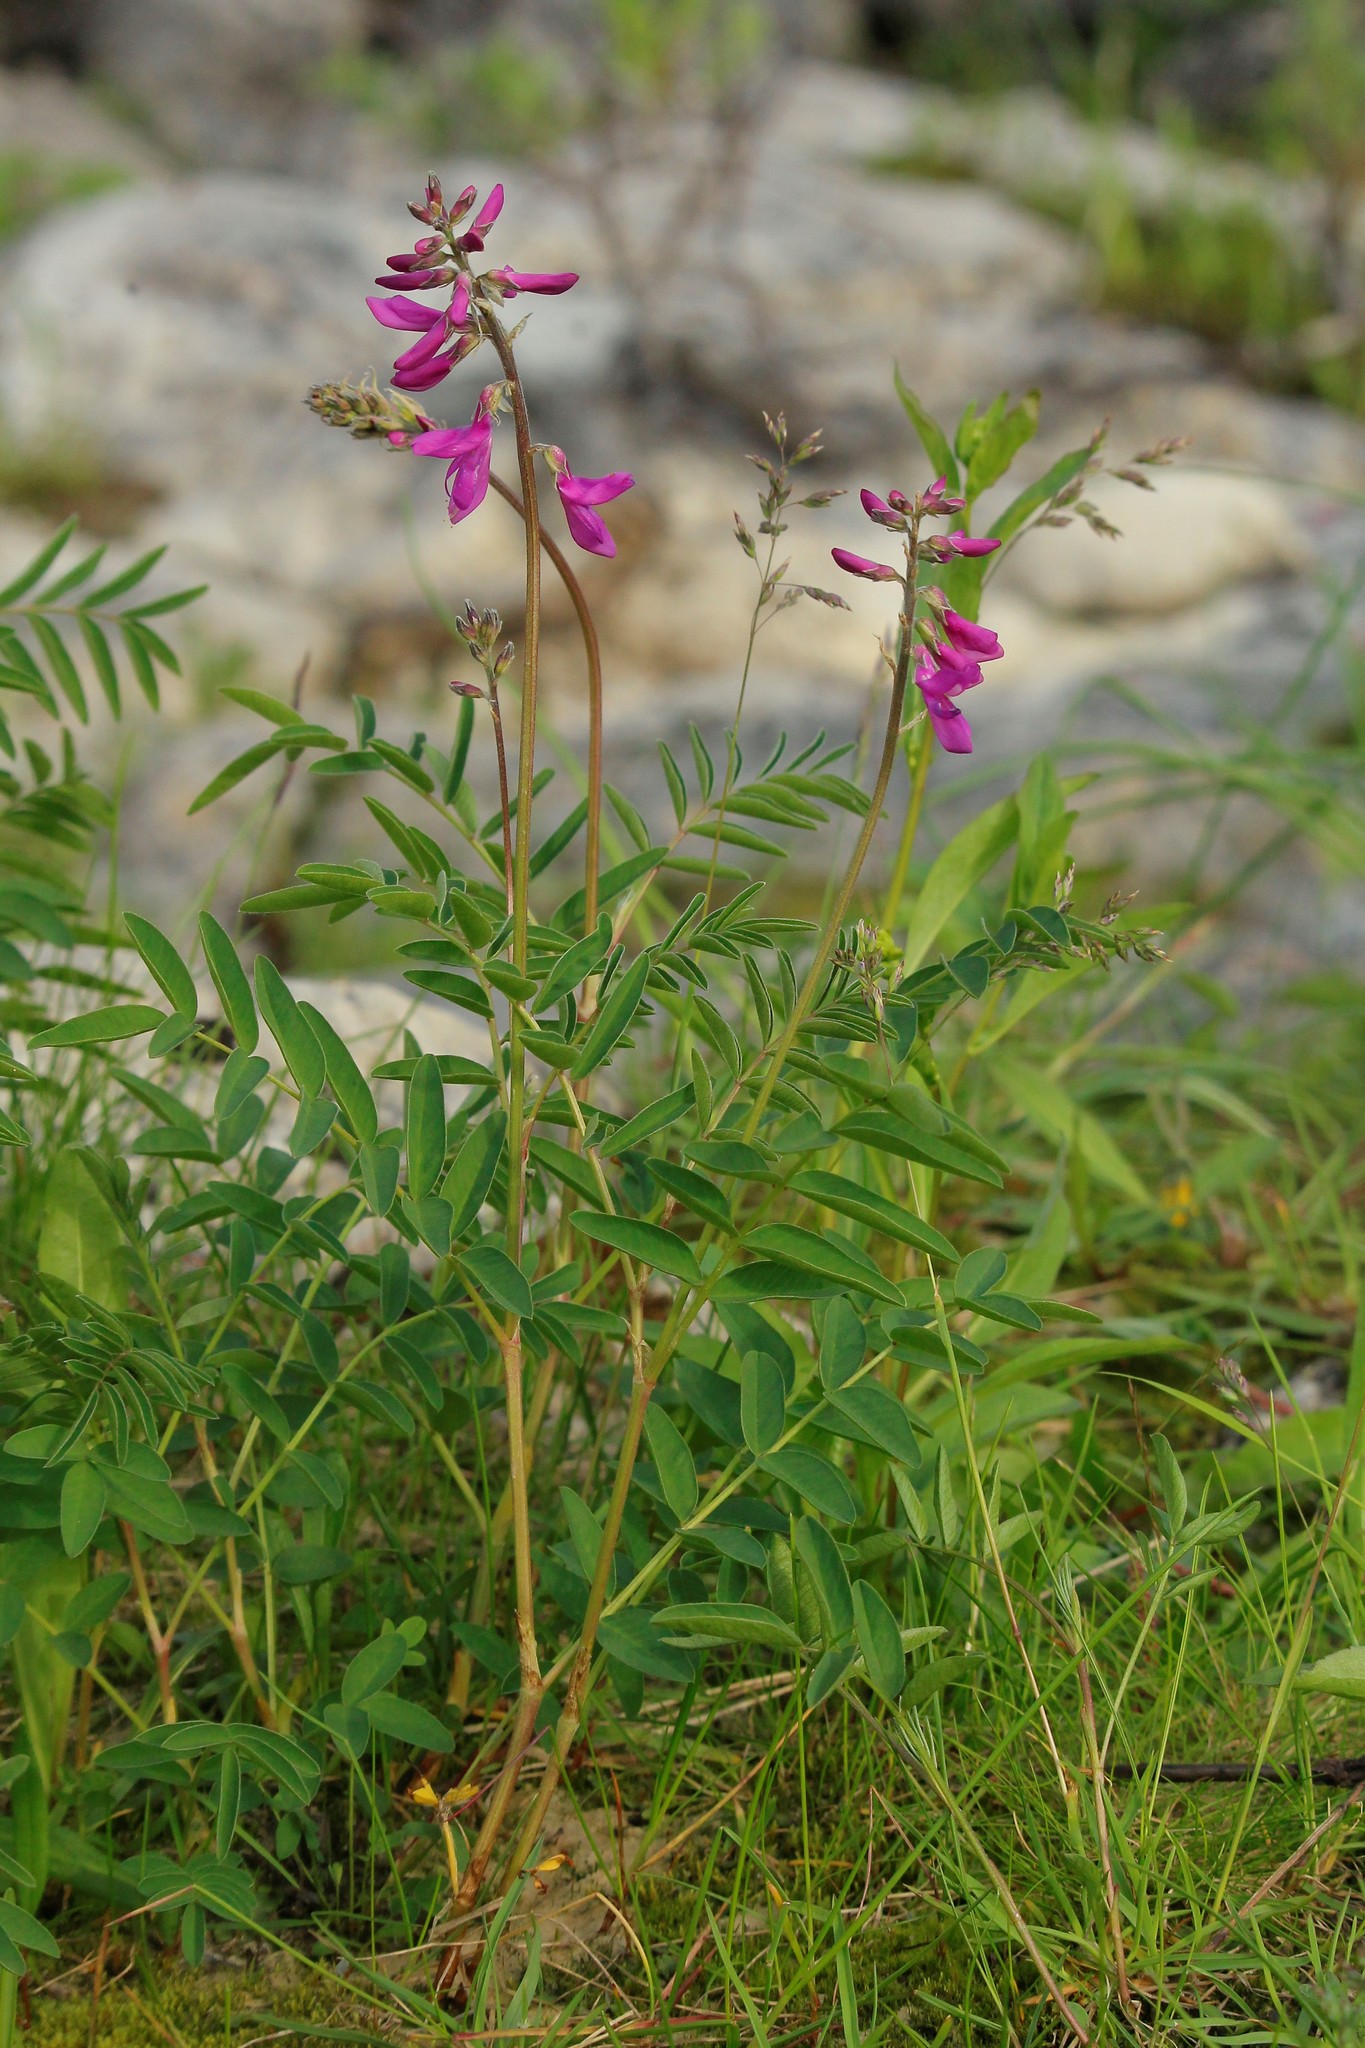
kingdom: Plantae
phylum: Tracheophyta
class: Magnoliopsida
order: Fabales
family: Fabaceae
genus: Hedysarum
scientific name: Hedysarum hedysaroides
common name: Alpine french-honeysuckle
